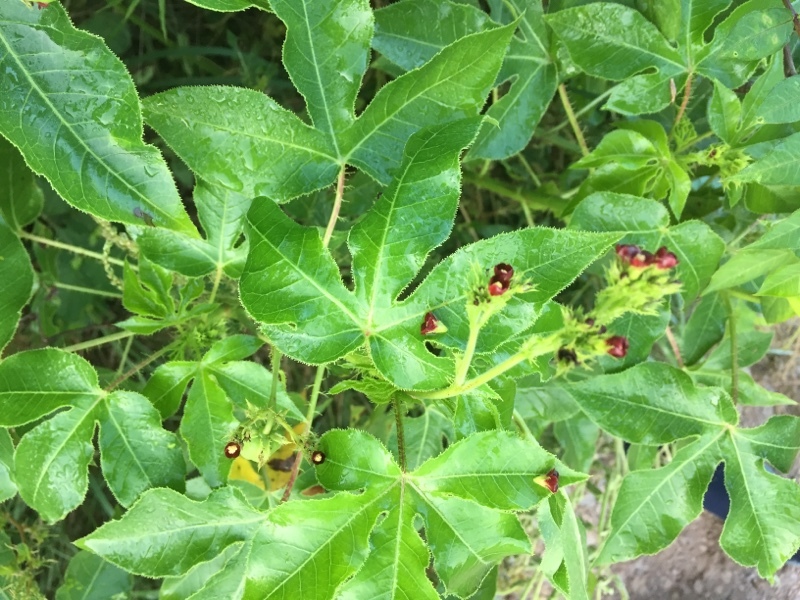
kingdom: Plantae
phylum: Tracheophyta
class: Magnoliopsida
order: Malpighiales
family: Euphorbiaceae
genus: Jatropha
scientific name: Jatropha gossypiifolia
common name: Bellyache bush
